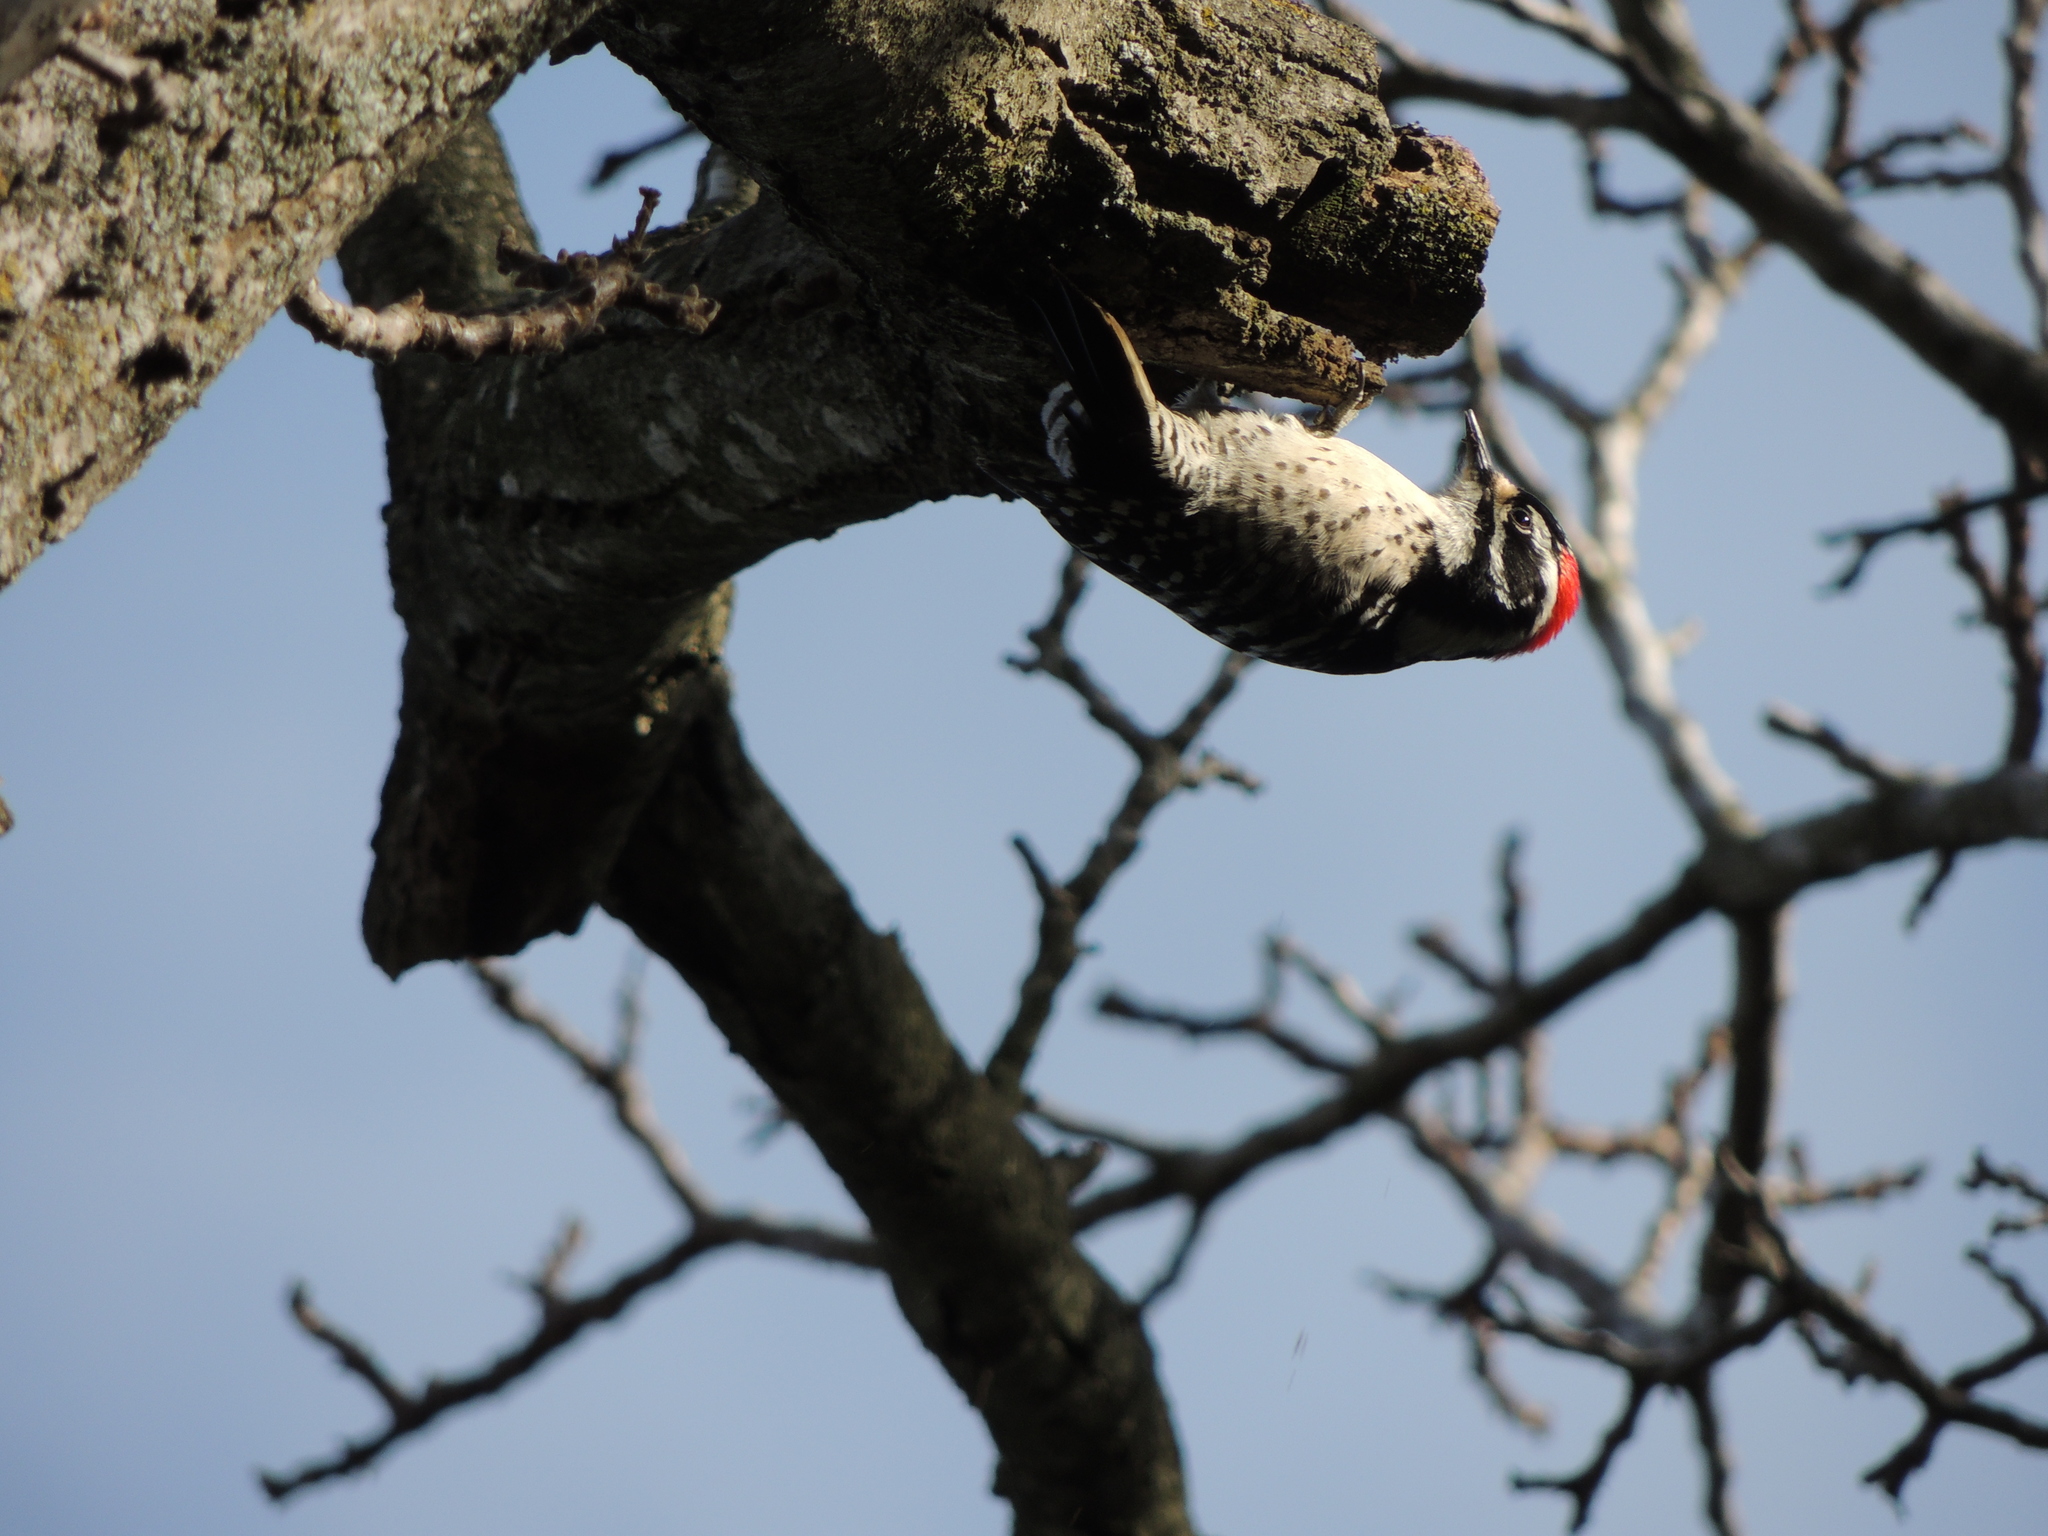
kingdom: Animalia
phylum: Chordata
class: Aves
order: Piciformes
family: Picidae
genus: Dryobates
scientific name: Dryobates nuttallii
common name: Nuttall's woodpecker
